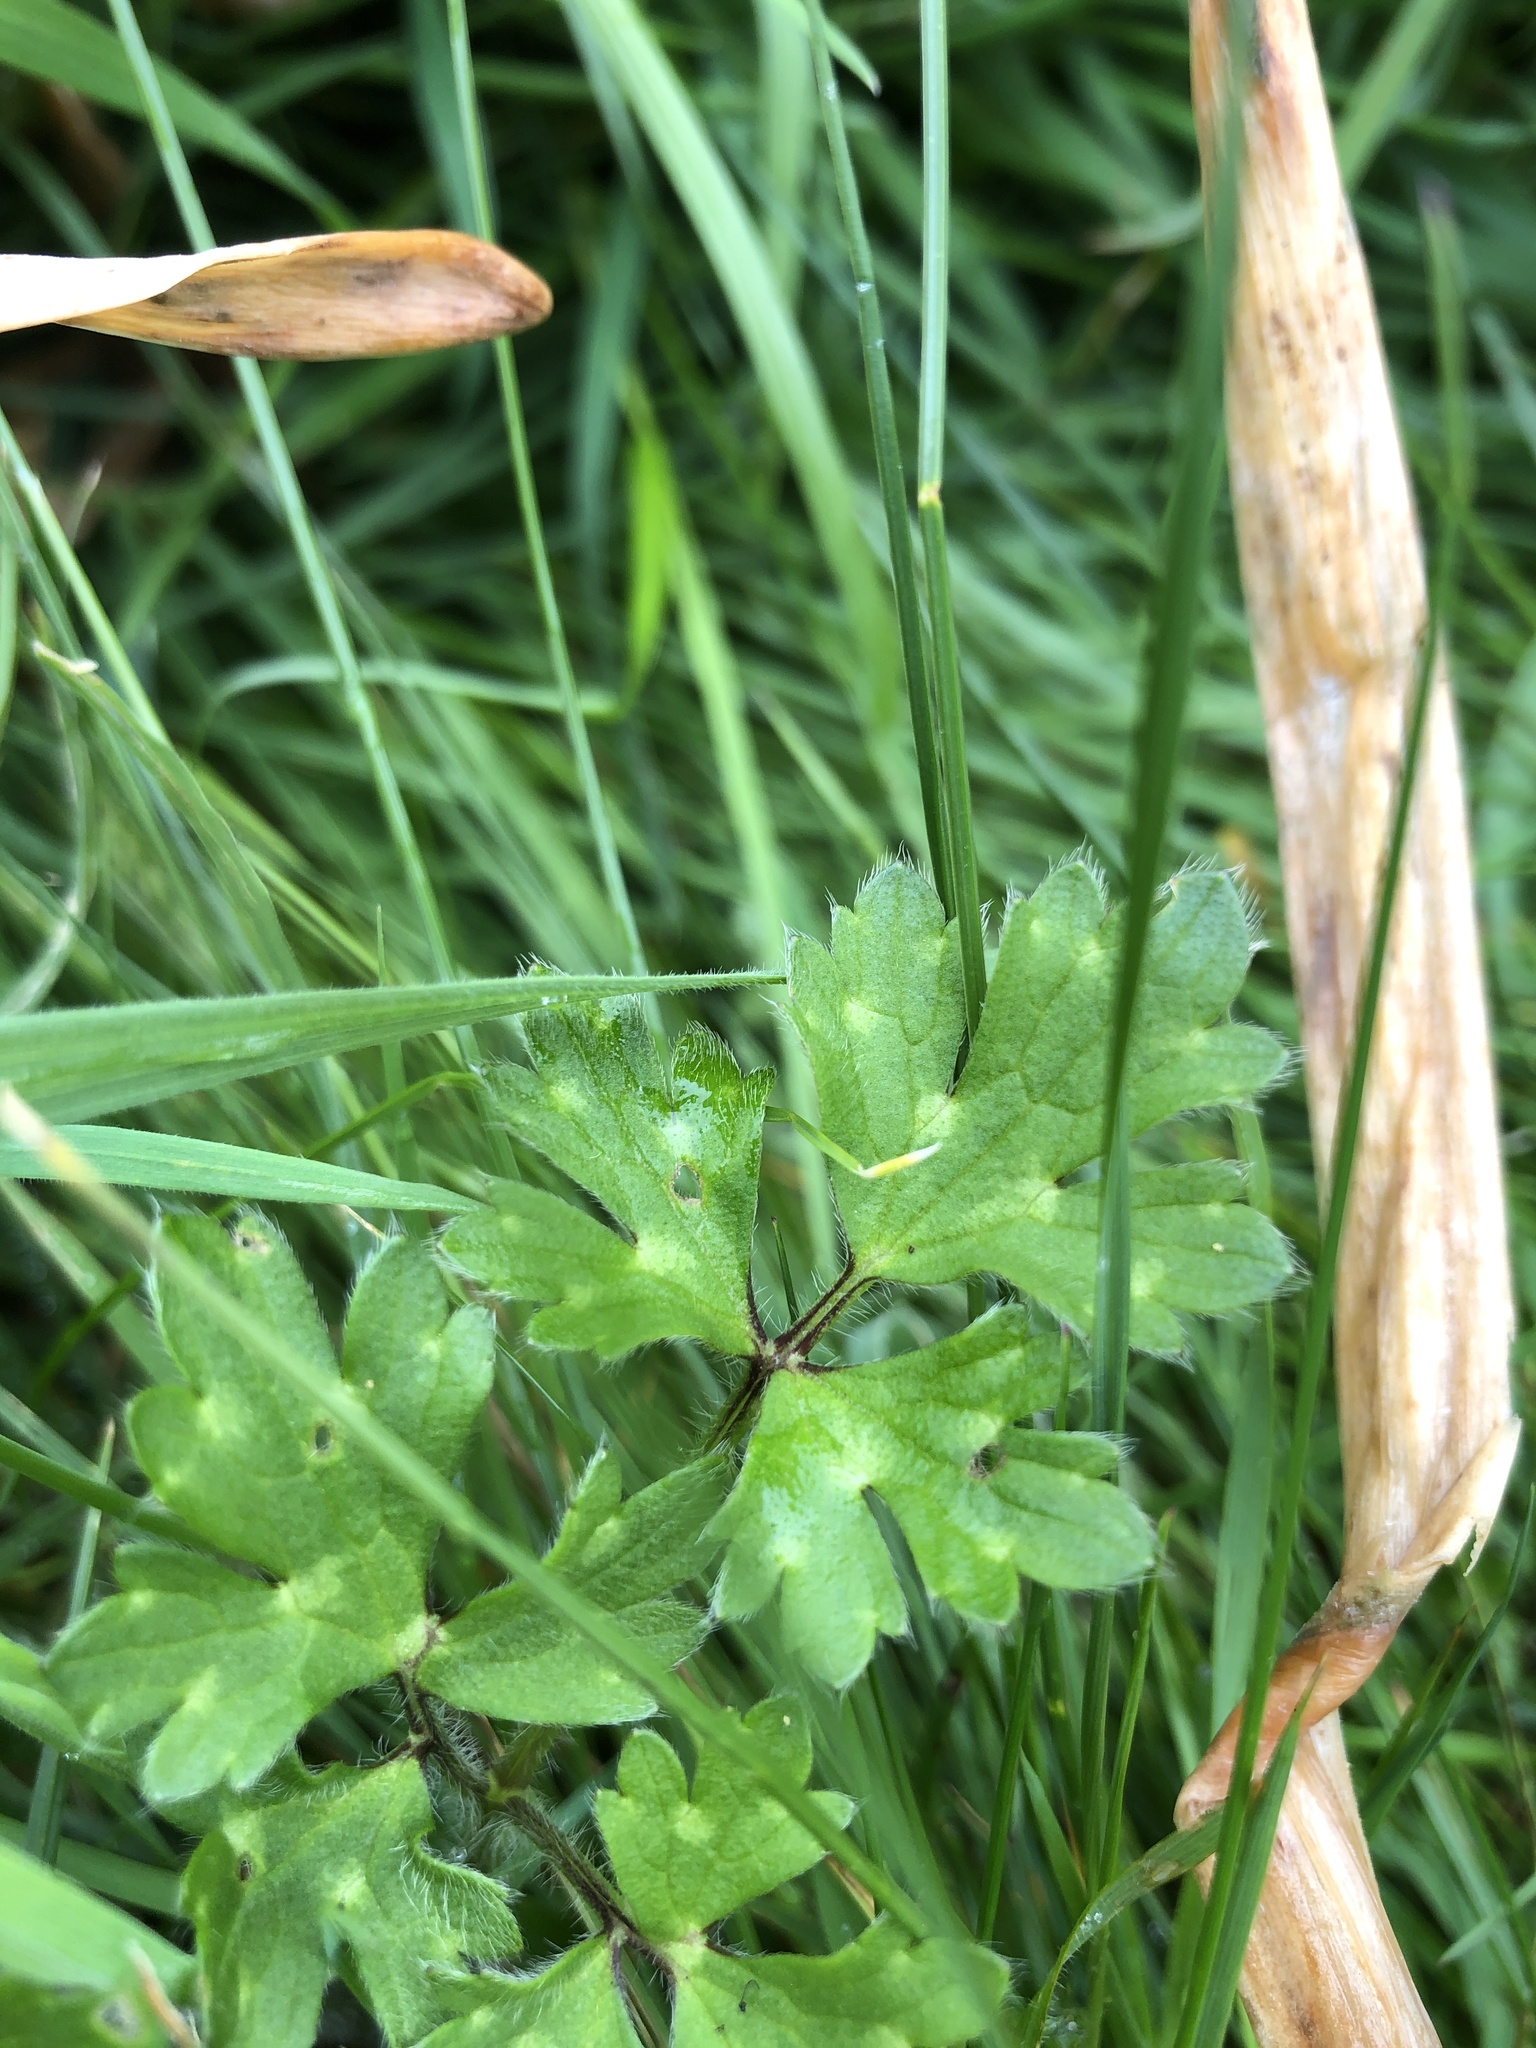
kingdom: Plantae
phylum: Tracheophyta
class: Magnoliopsida
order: Ranunculales
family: Ranunculaceae
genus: Ranunculus
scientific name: Ranunculus repens
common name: Creeping buttercup
